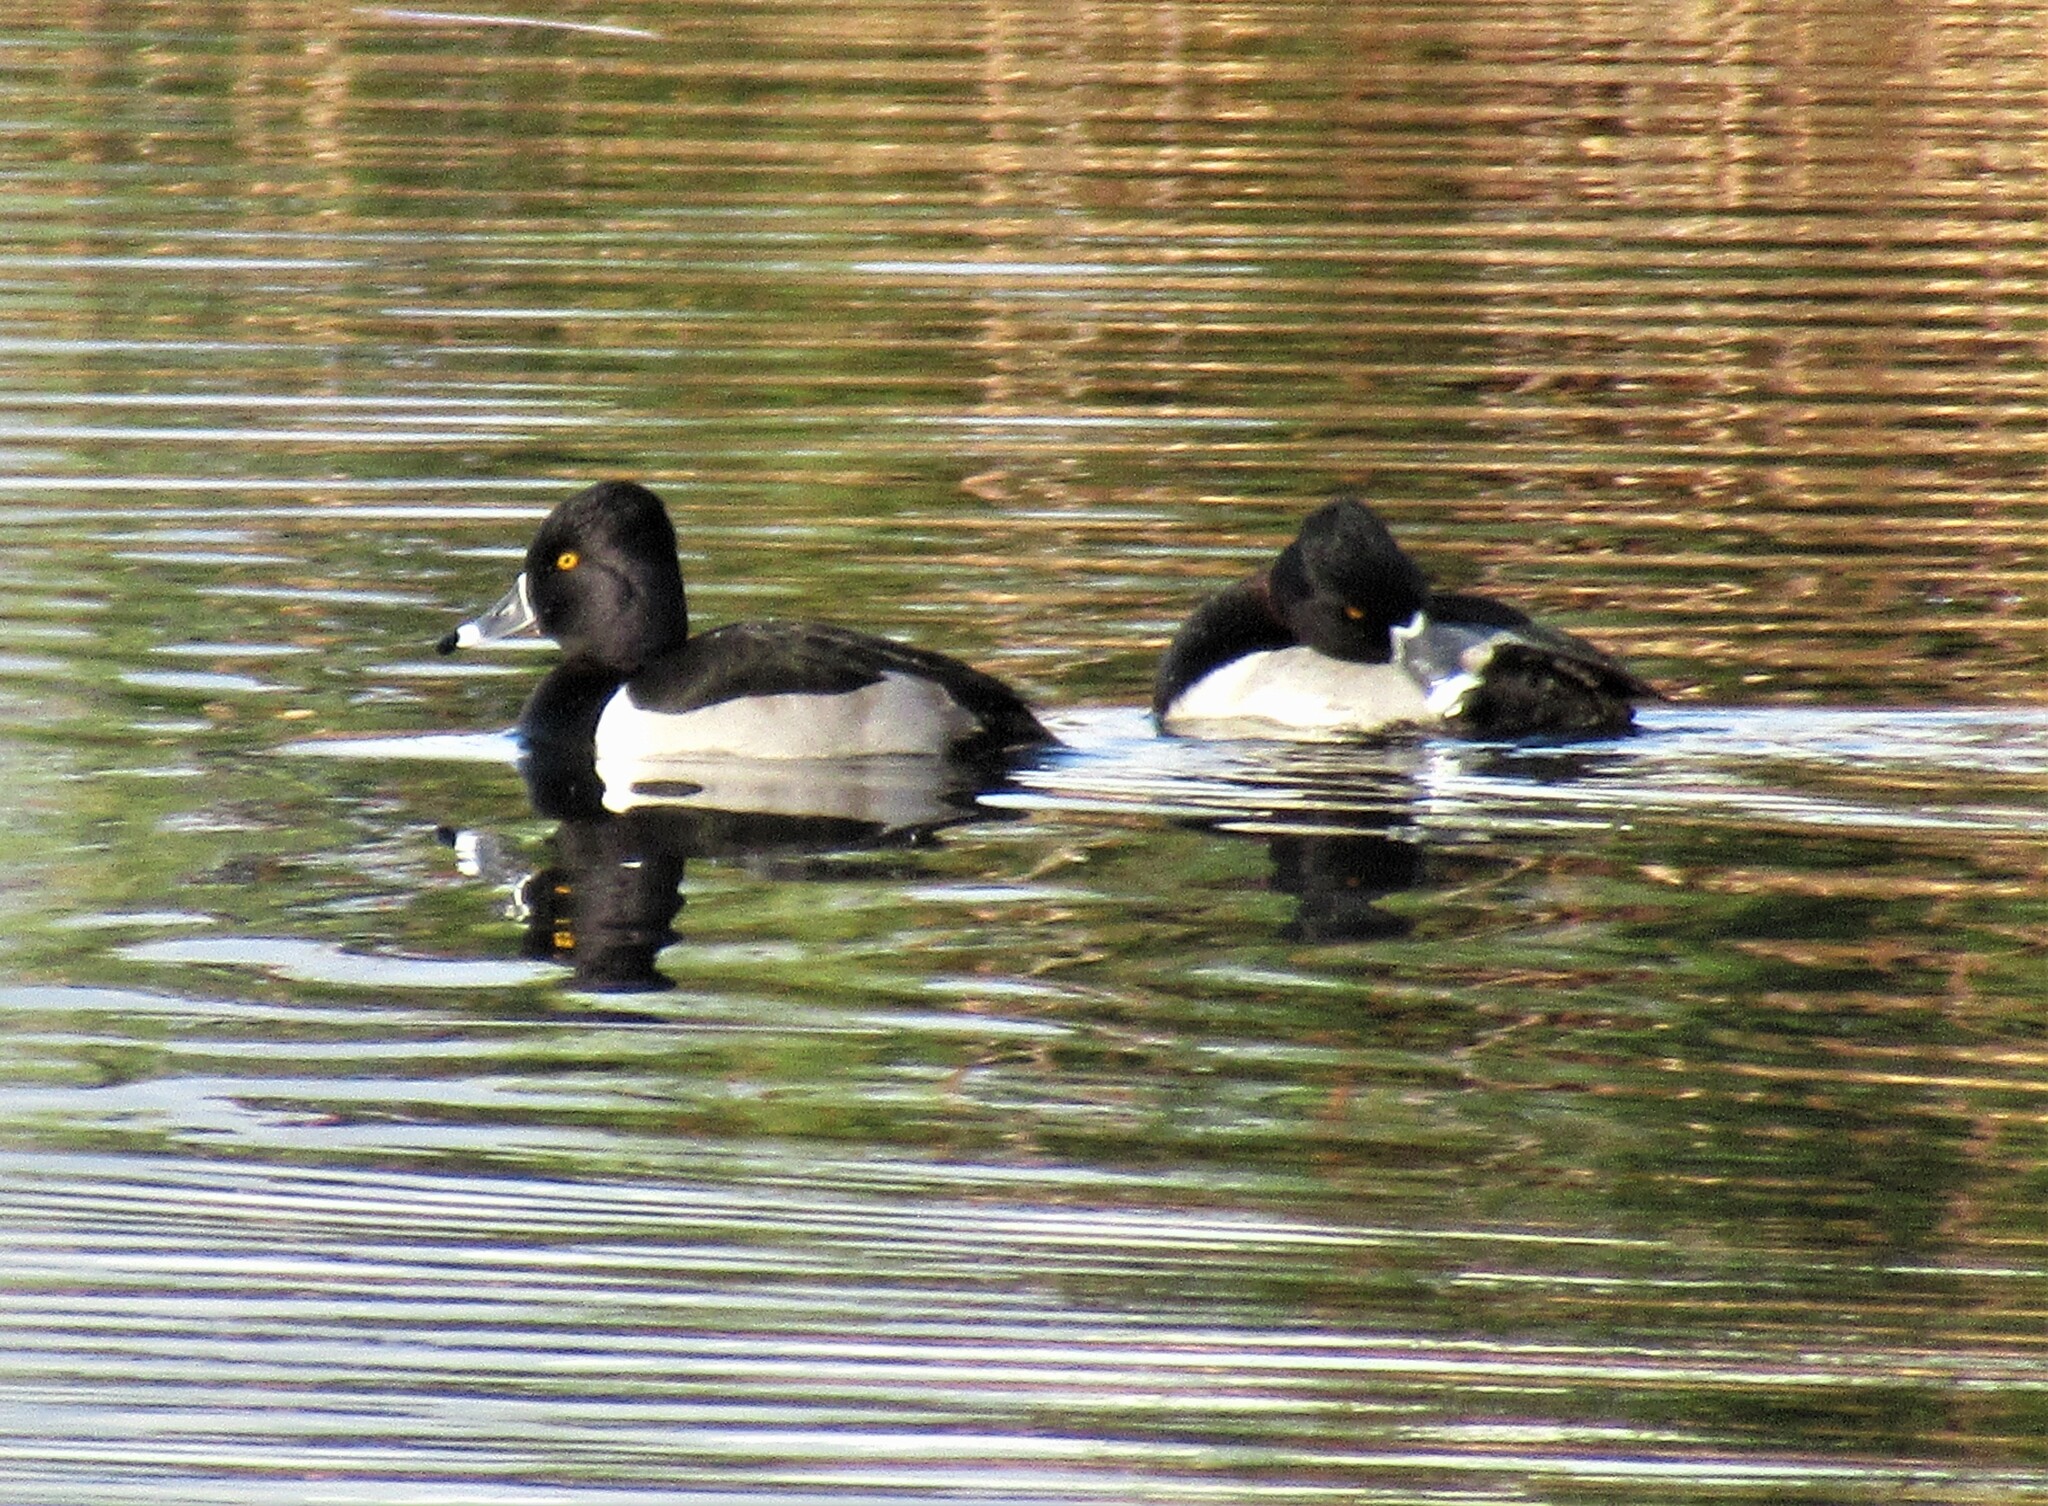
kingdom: Animalia
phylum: Chordata
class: Aves
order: Anseriformes
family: Anatidae
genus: Aythya
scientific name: Aythya collaris
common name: Ring-necked duck
